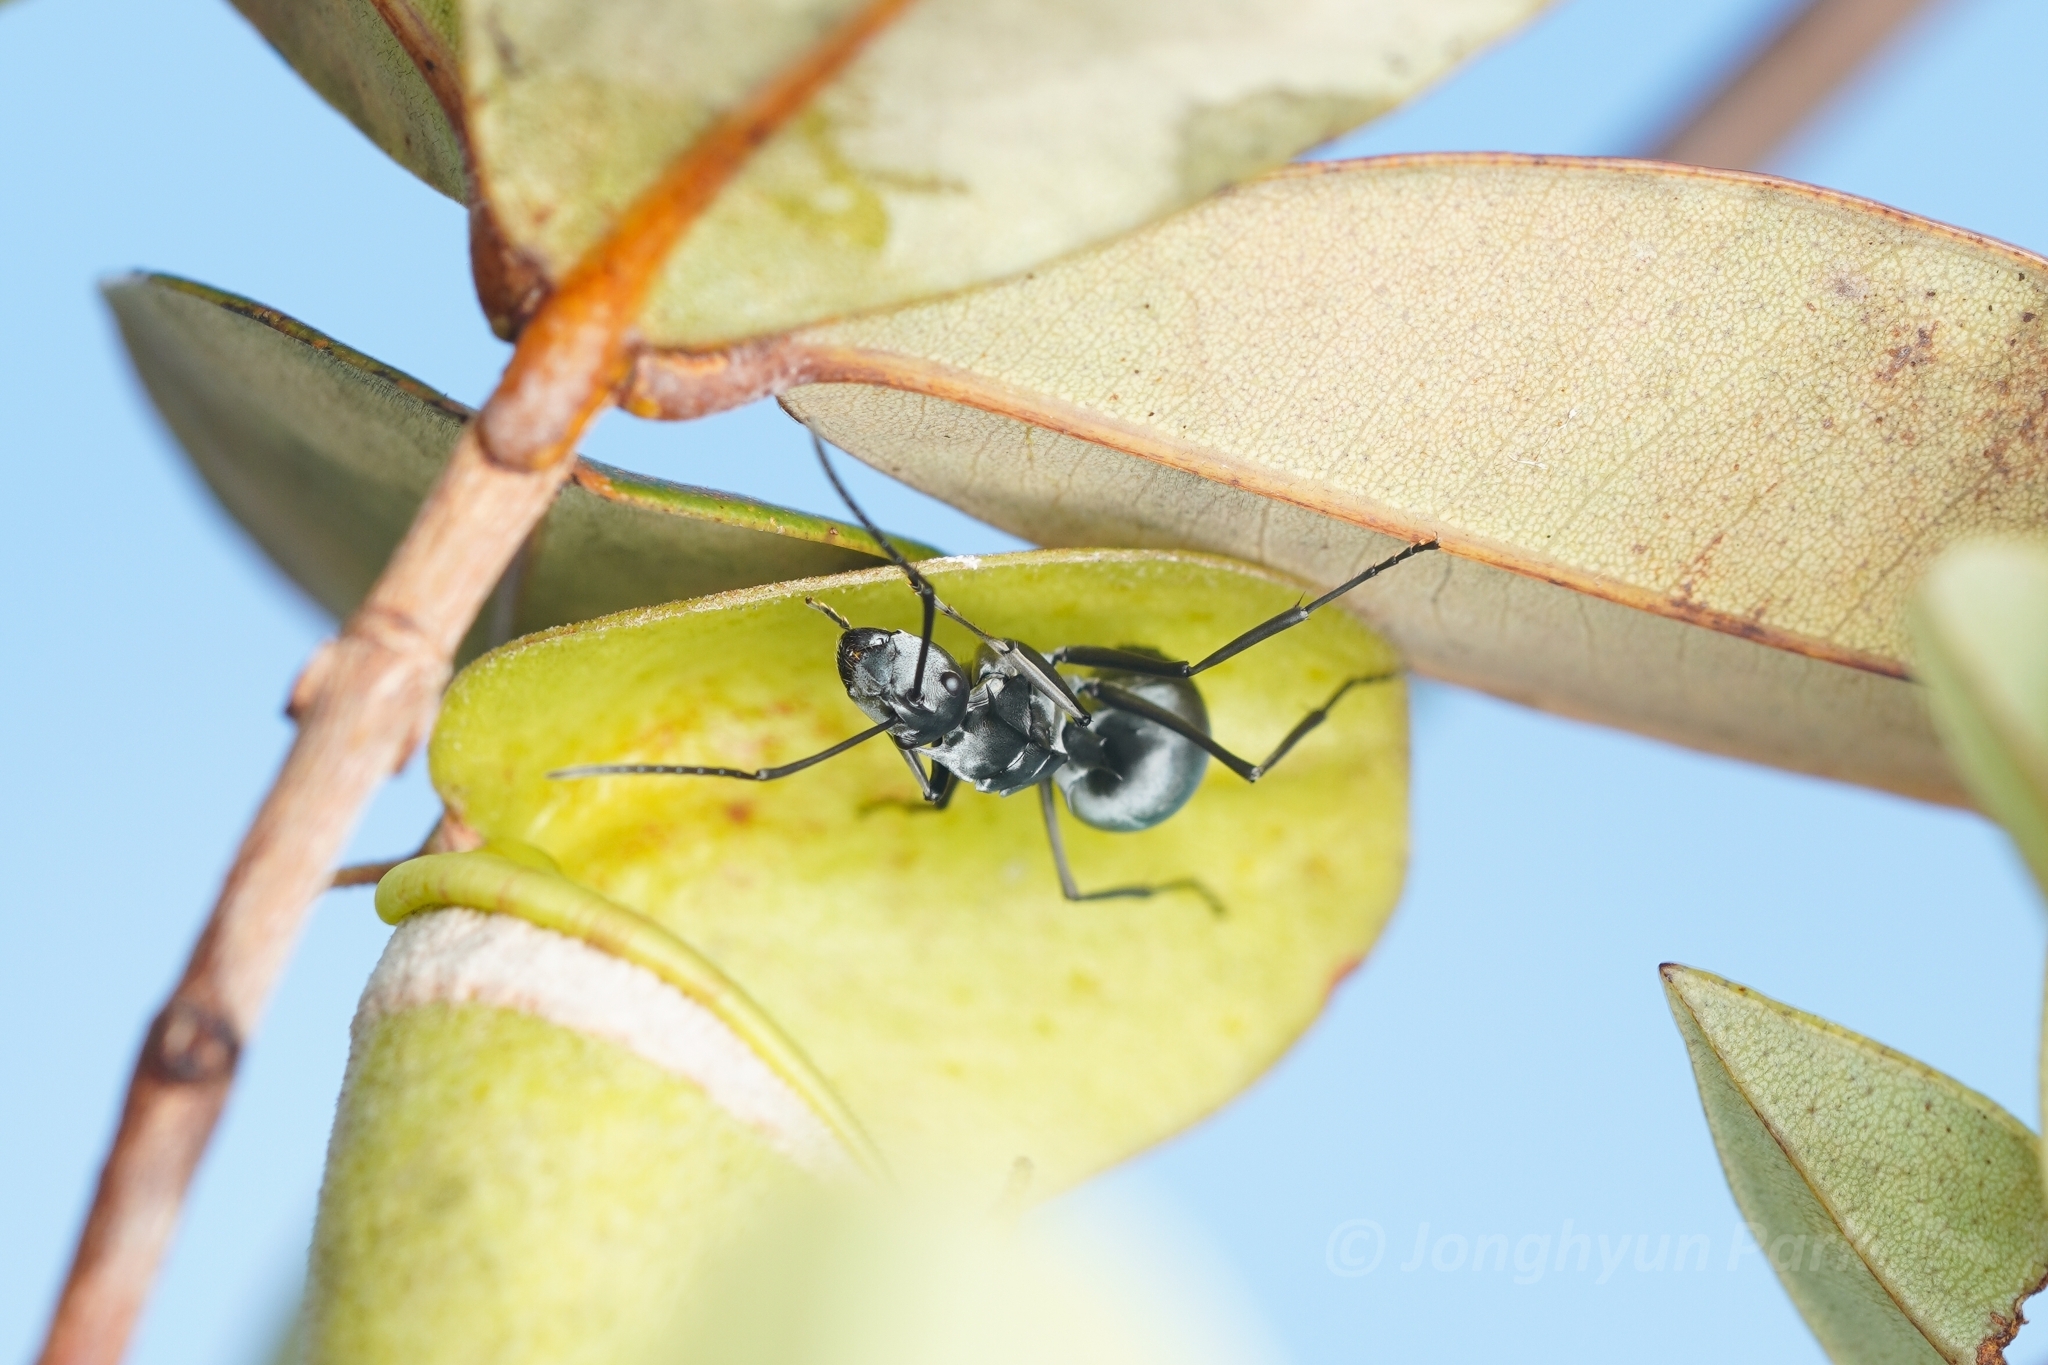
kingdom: Animalia
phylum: Arthropoda
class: Insecta
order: Hymenoptera
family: Formicidae
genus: Polyrhachis
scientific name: Polyrhachis pruinosa
